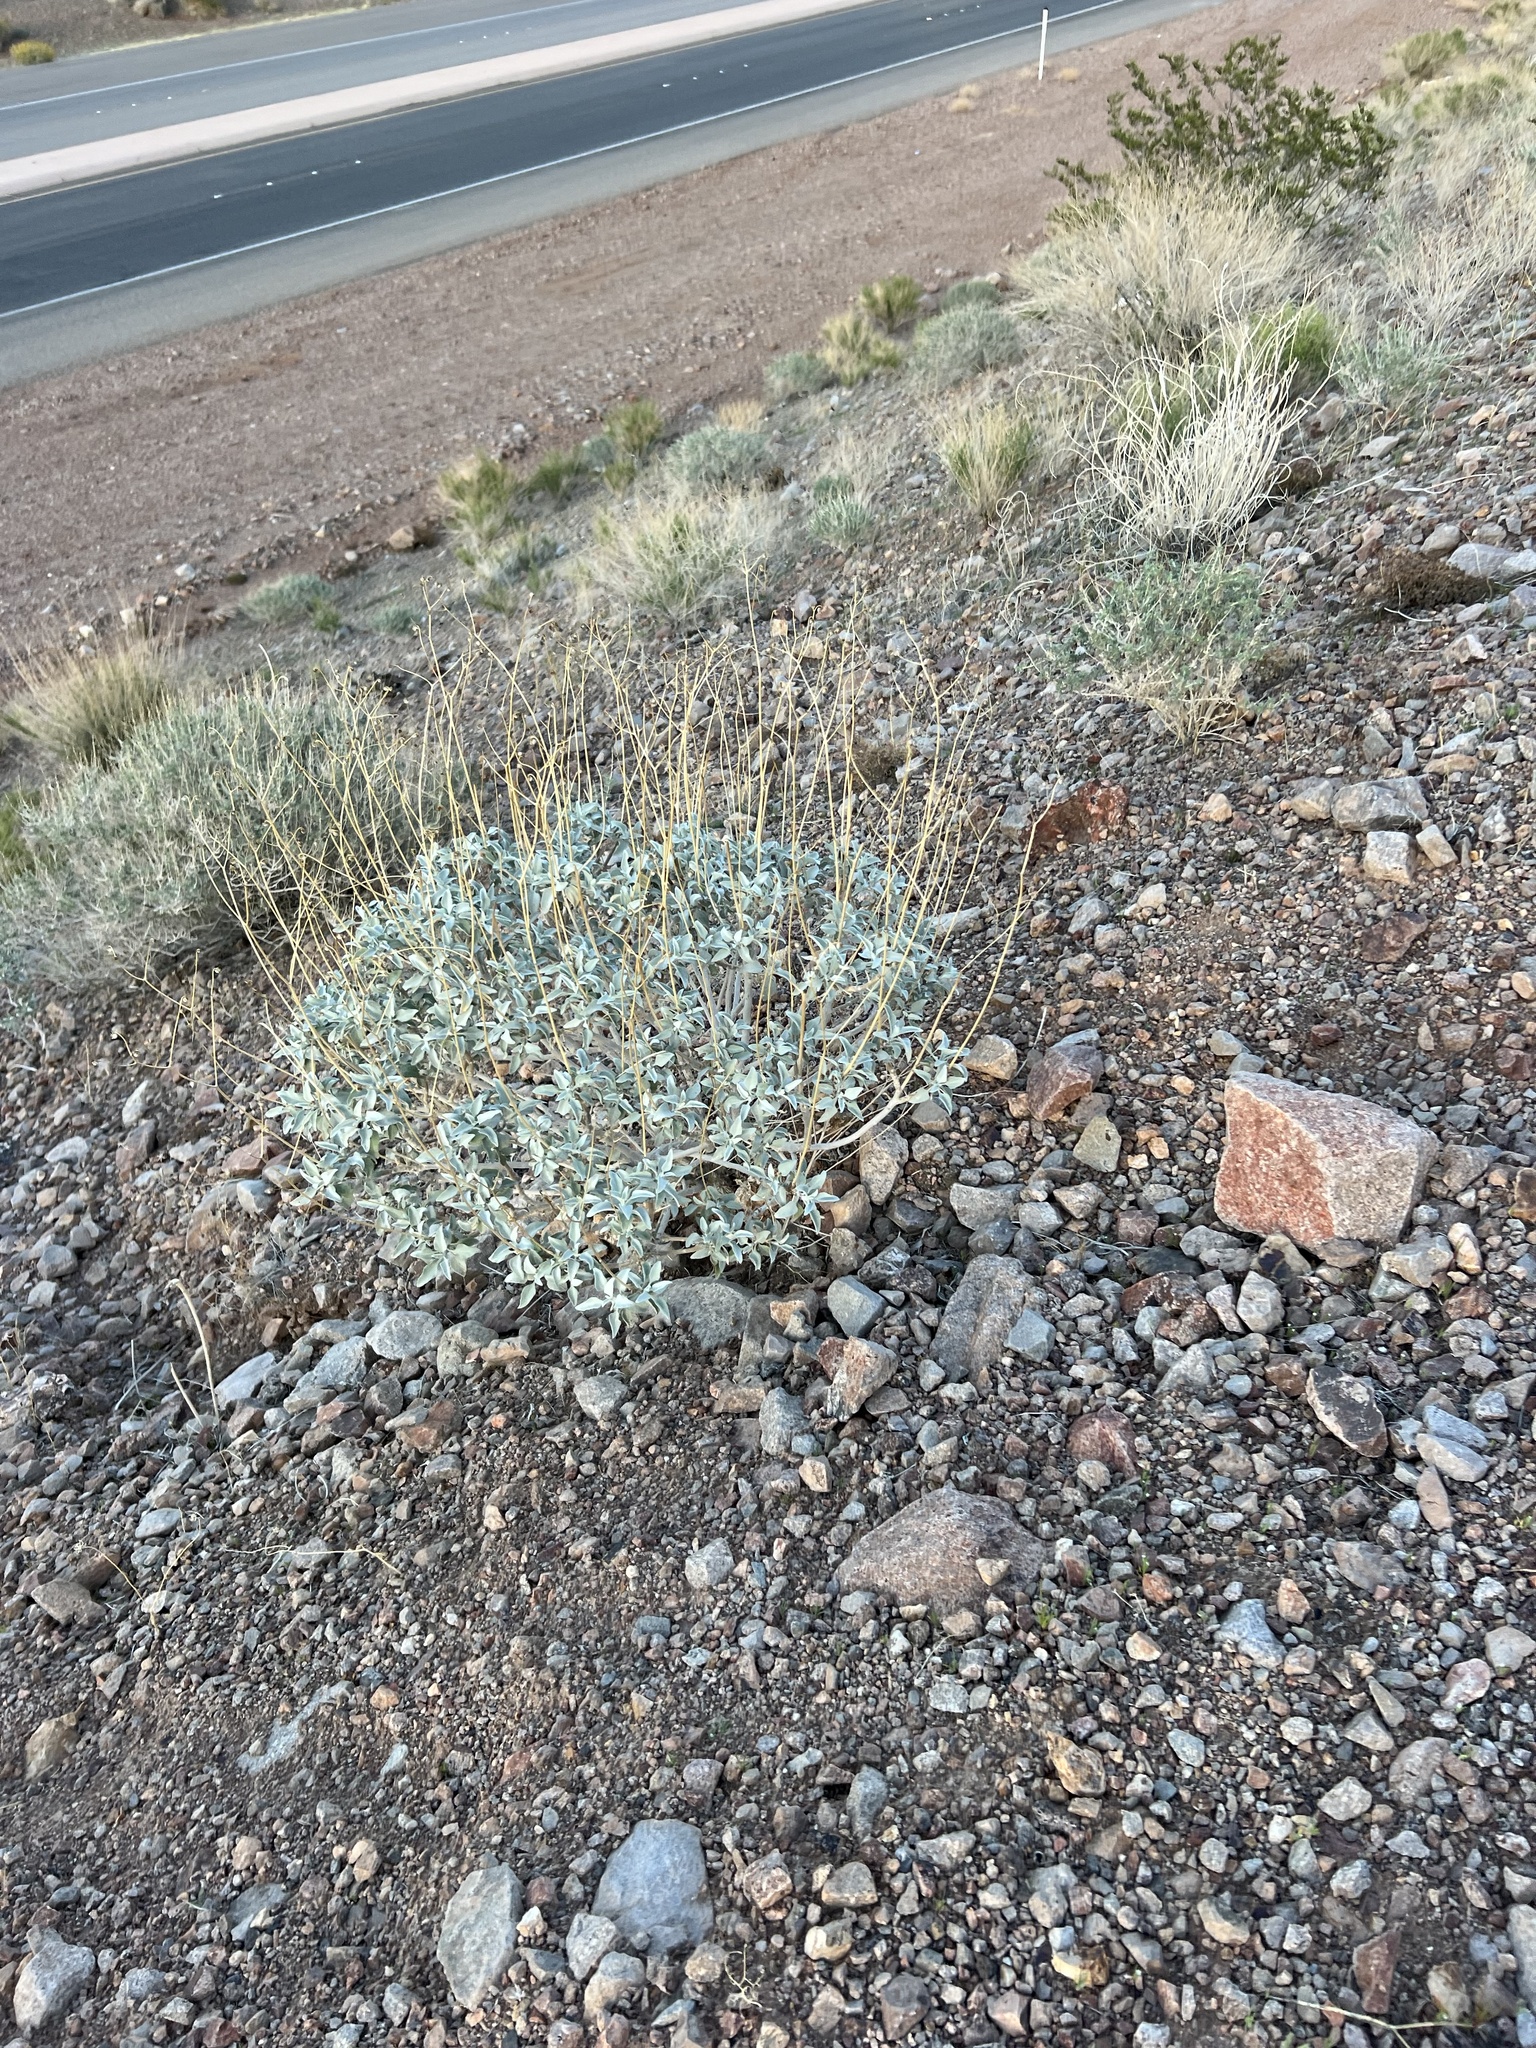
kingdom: Plantae
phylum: Tracheophyta
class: Magnoliopsida
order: Asterales
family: Asteraceae
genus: Encelia
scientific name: Encelia farinosa
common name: Brittlebush
